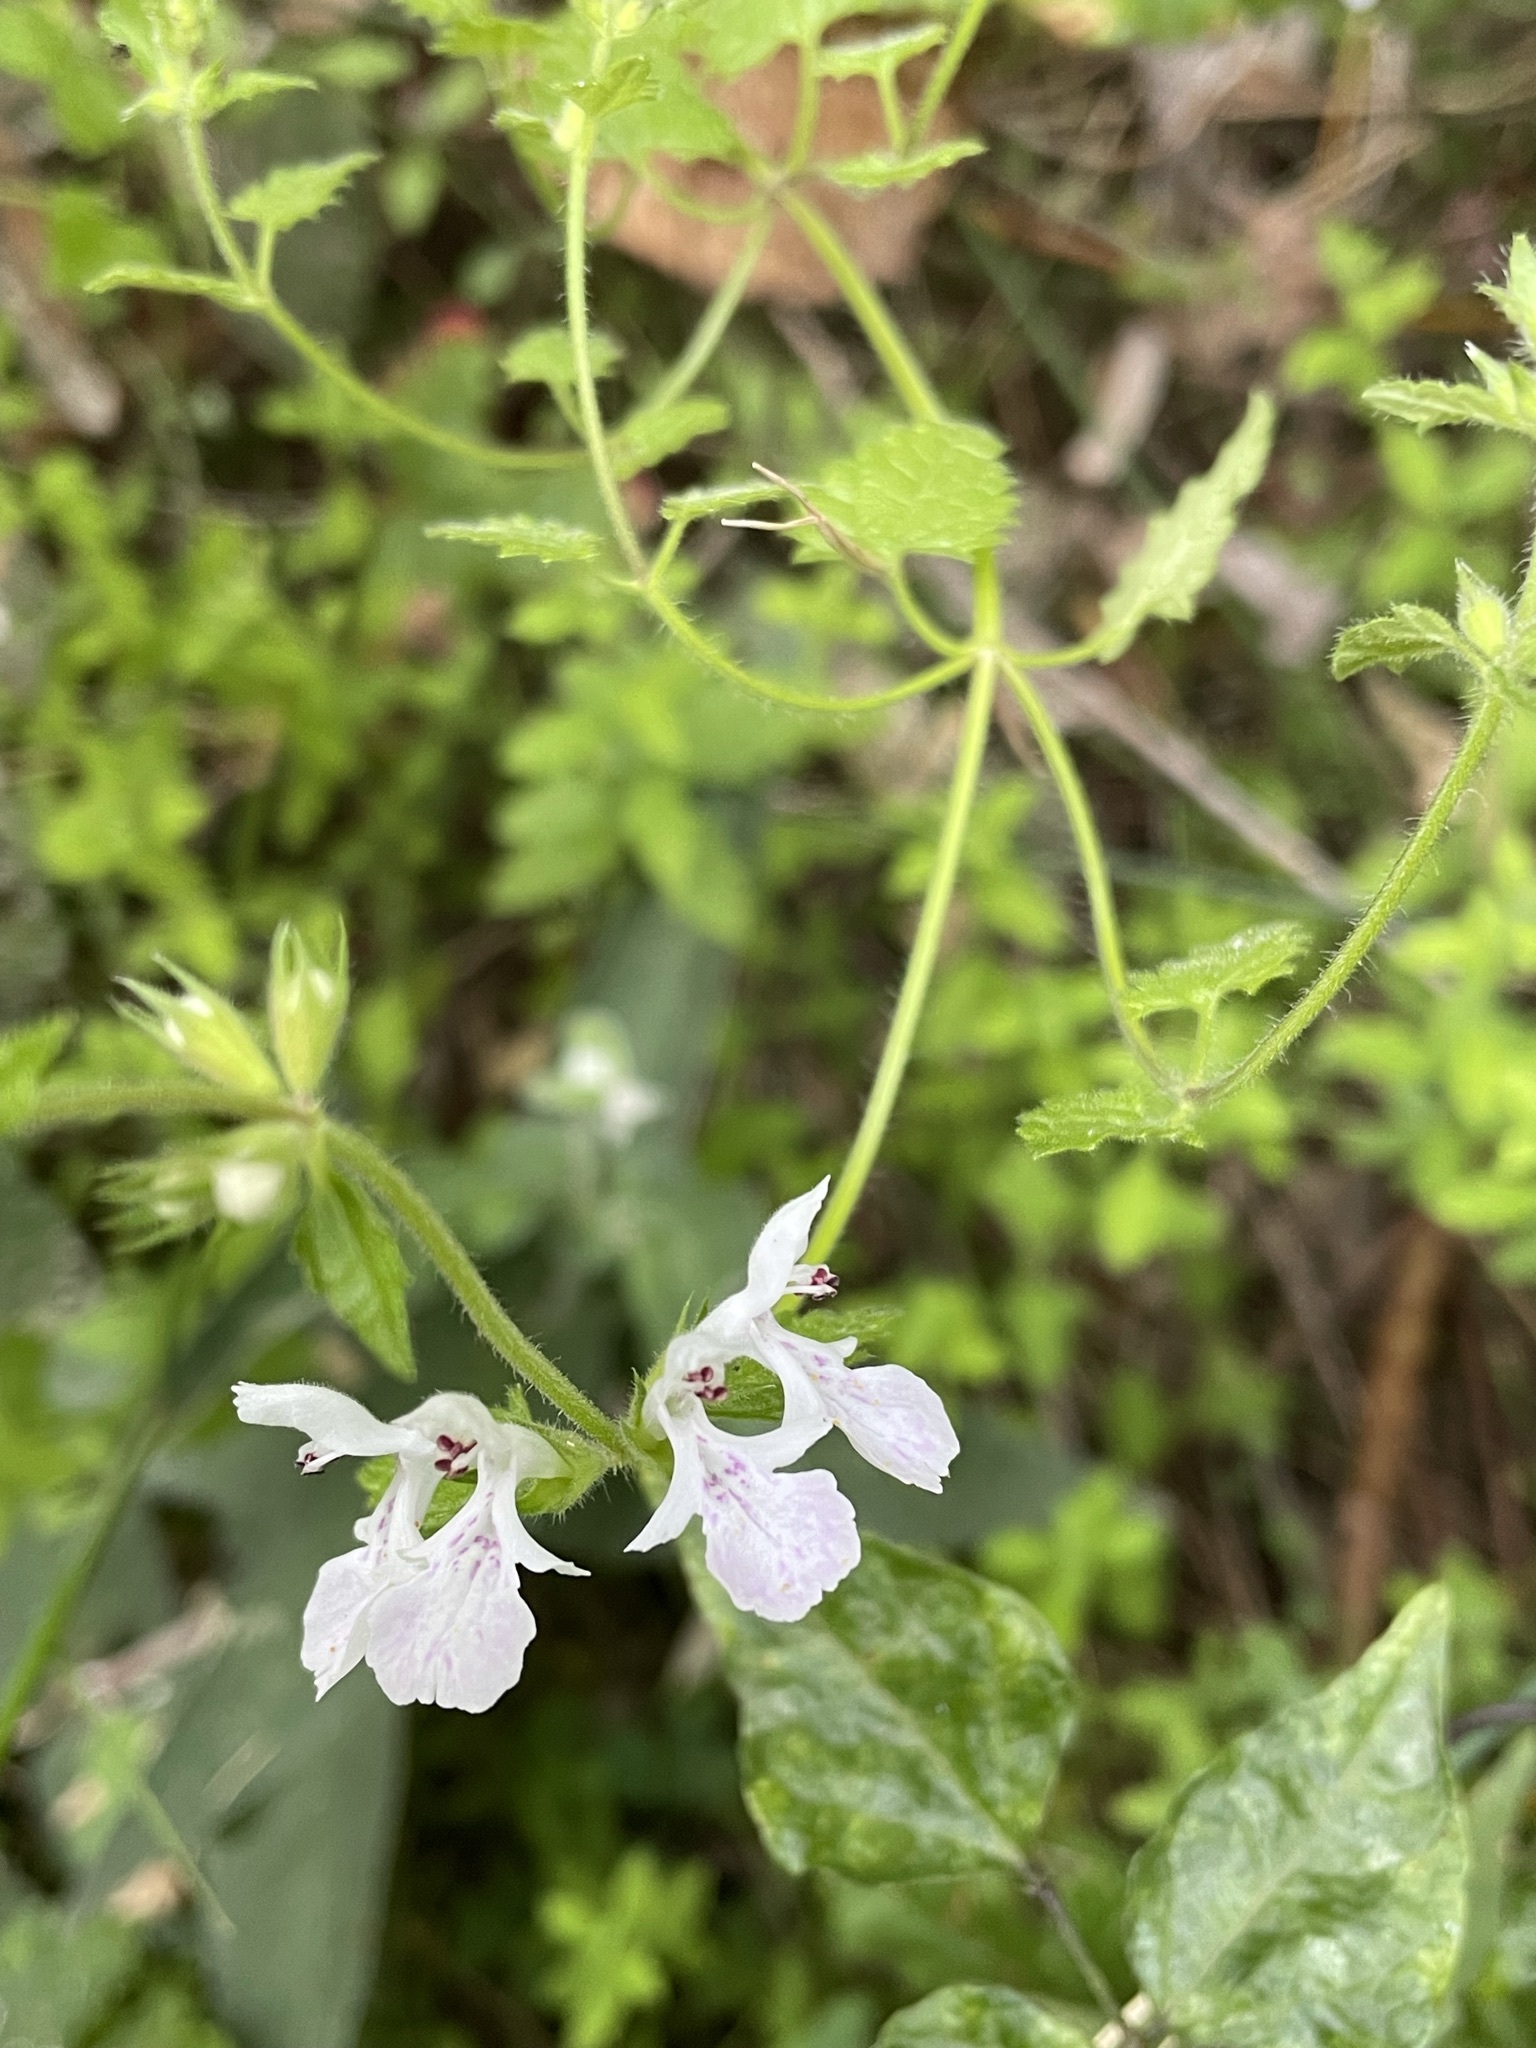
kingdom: Plantae
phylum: Tracheophyta
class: Magnoliopsida
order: Lamiales
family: Lamiaceae
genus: Stachys
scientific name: Stachys aethiopica
